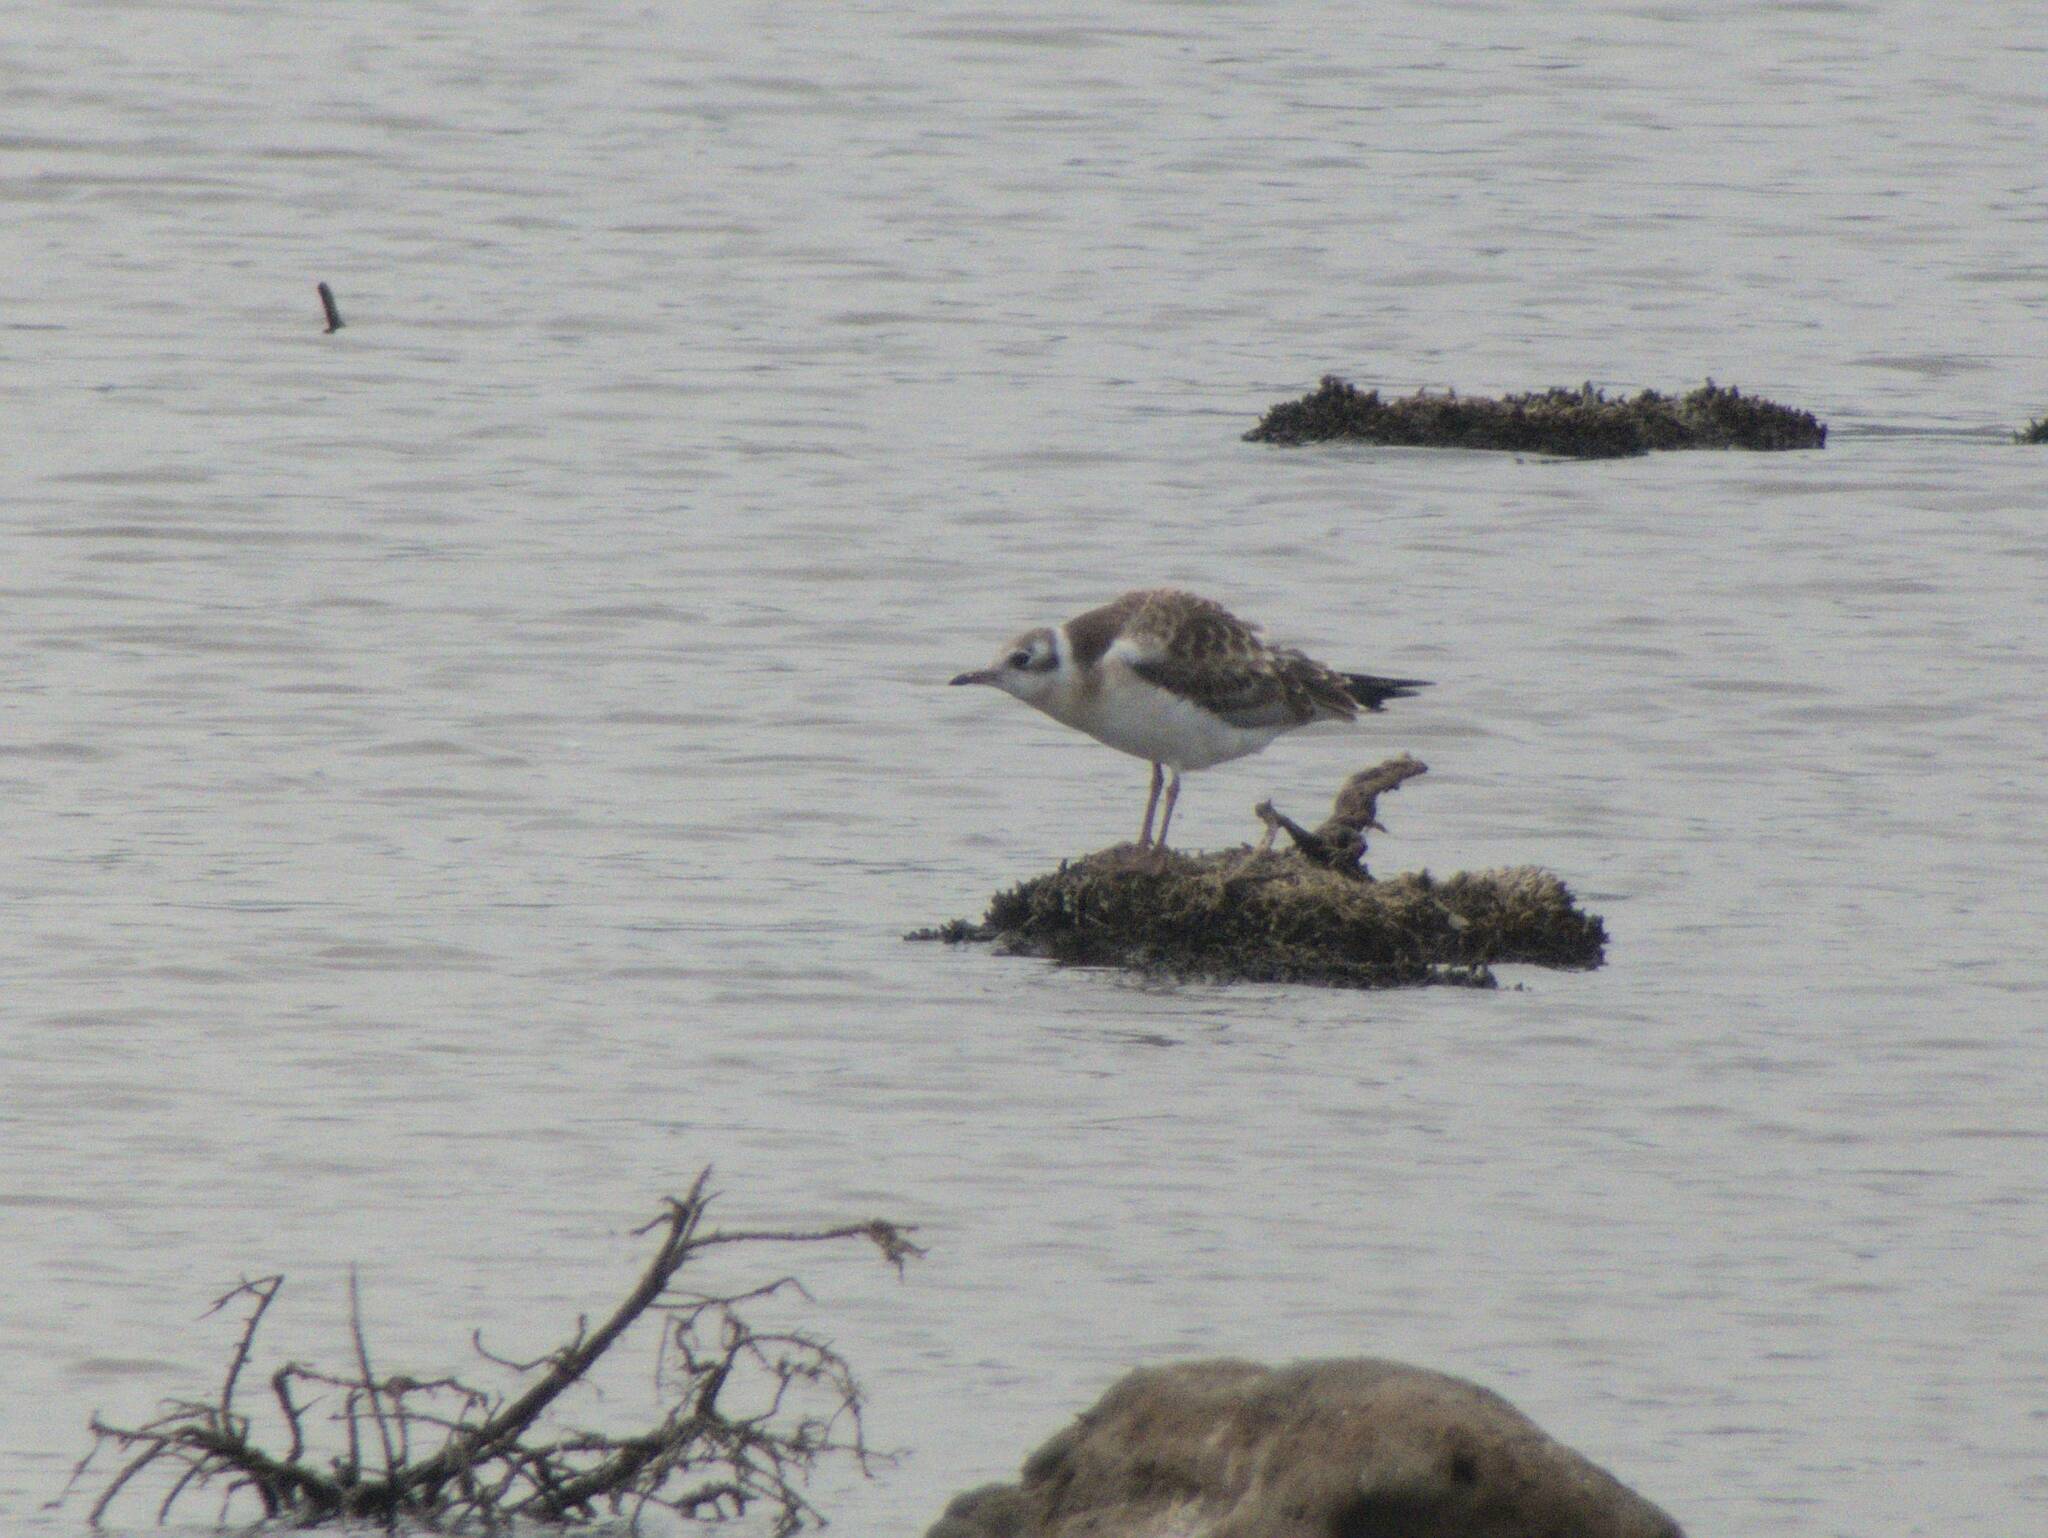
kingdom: Animalia
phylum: Chordata
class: Aves
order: Charadriiformes
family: Laridae
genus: Chroicocephalus
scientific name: Chroicocephalus ridibundus
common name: Black-headed gull
